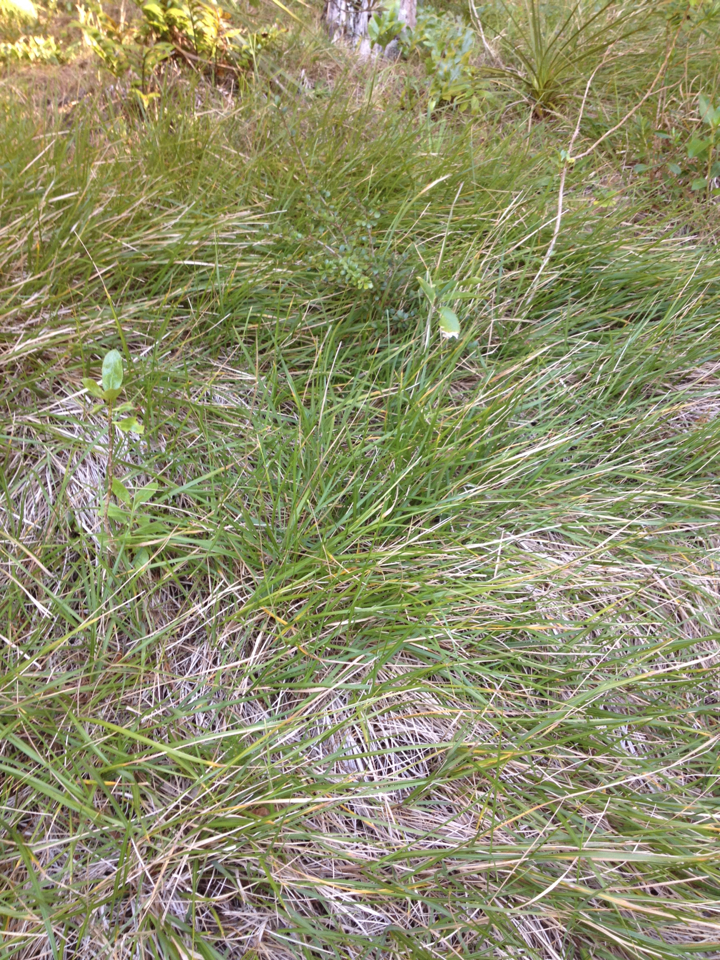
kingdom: Plantae
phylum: Tracheophyta
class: Liliopsida
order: Poales
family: Poaceae
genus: Poa
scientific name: Poa anceps
